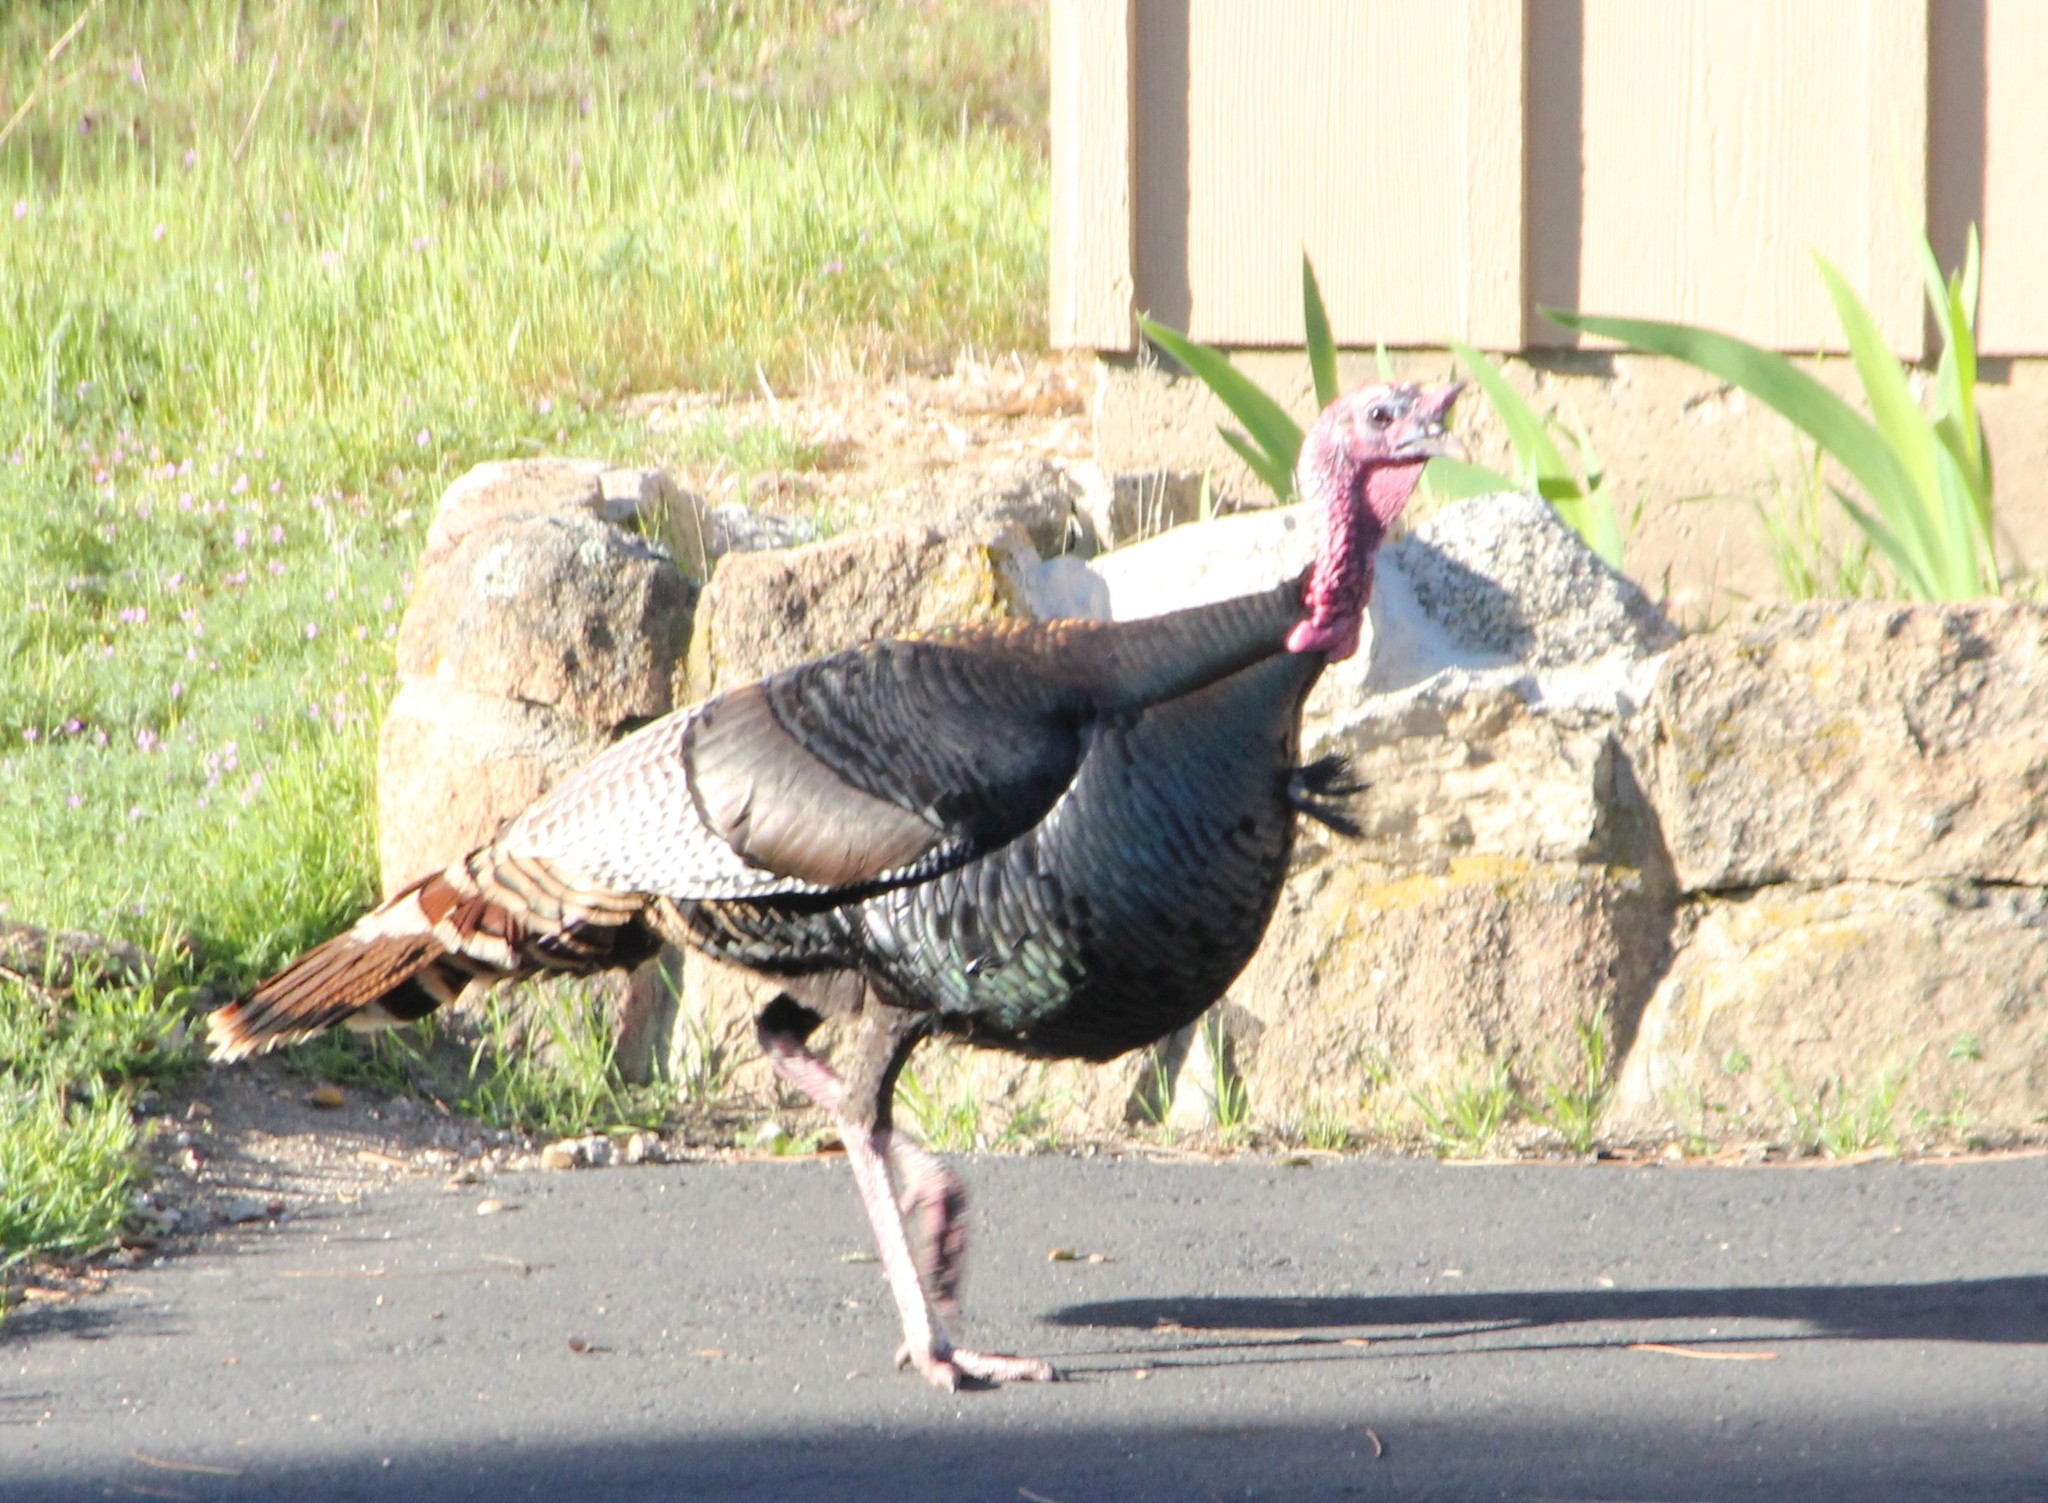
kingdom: Animalia
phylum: Chordata
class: Aves
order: Galliformes
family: Phasianidae
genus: Meleagris
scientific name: Meleagris gallopavo
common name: Wild turkey
